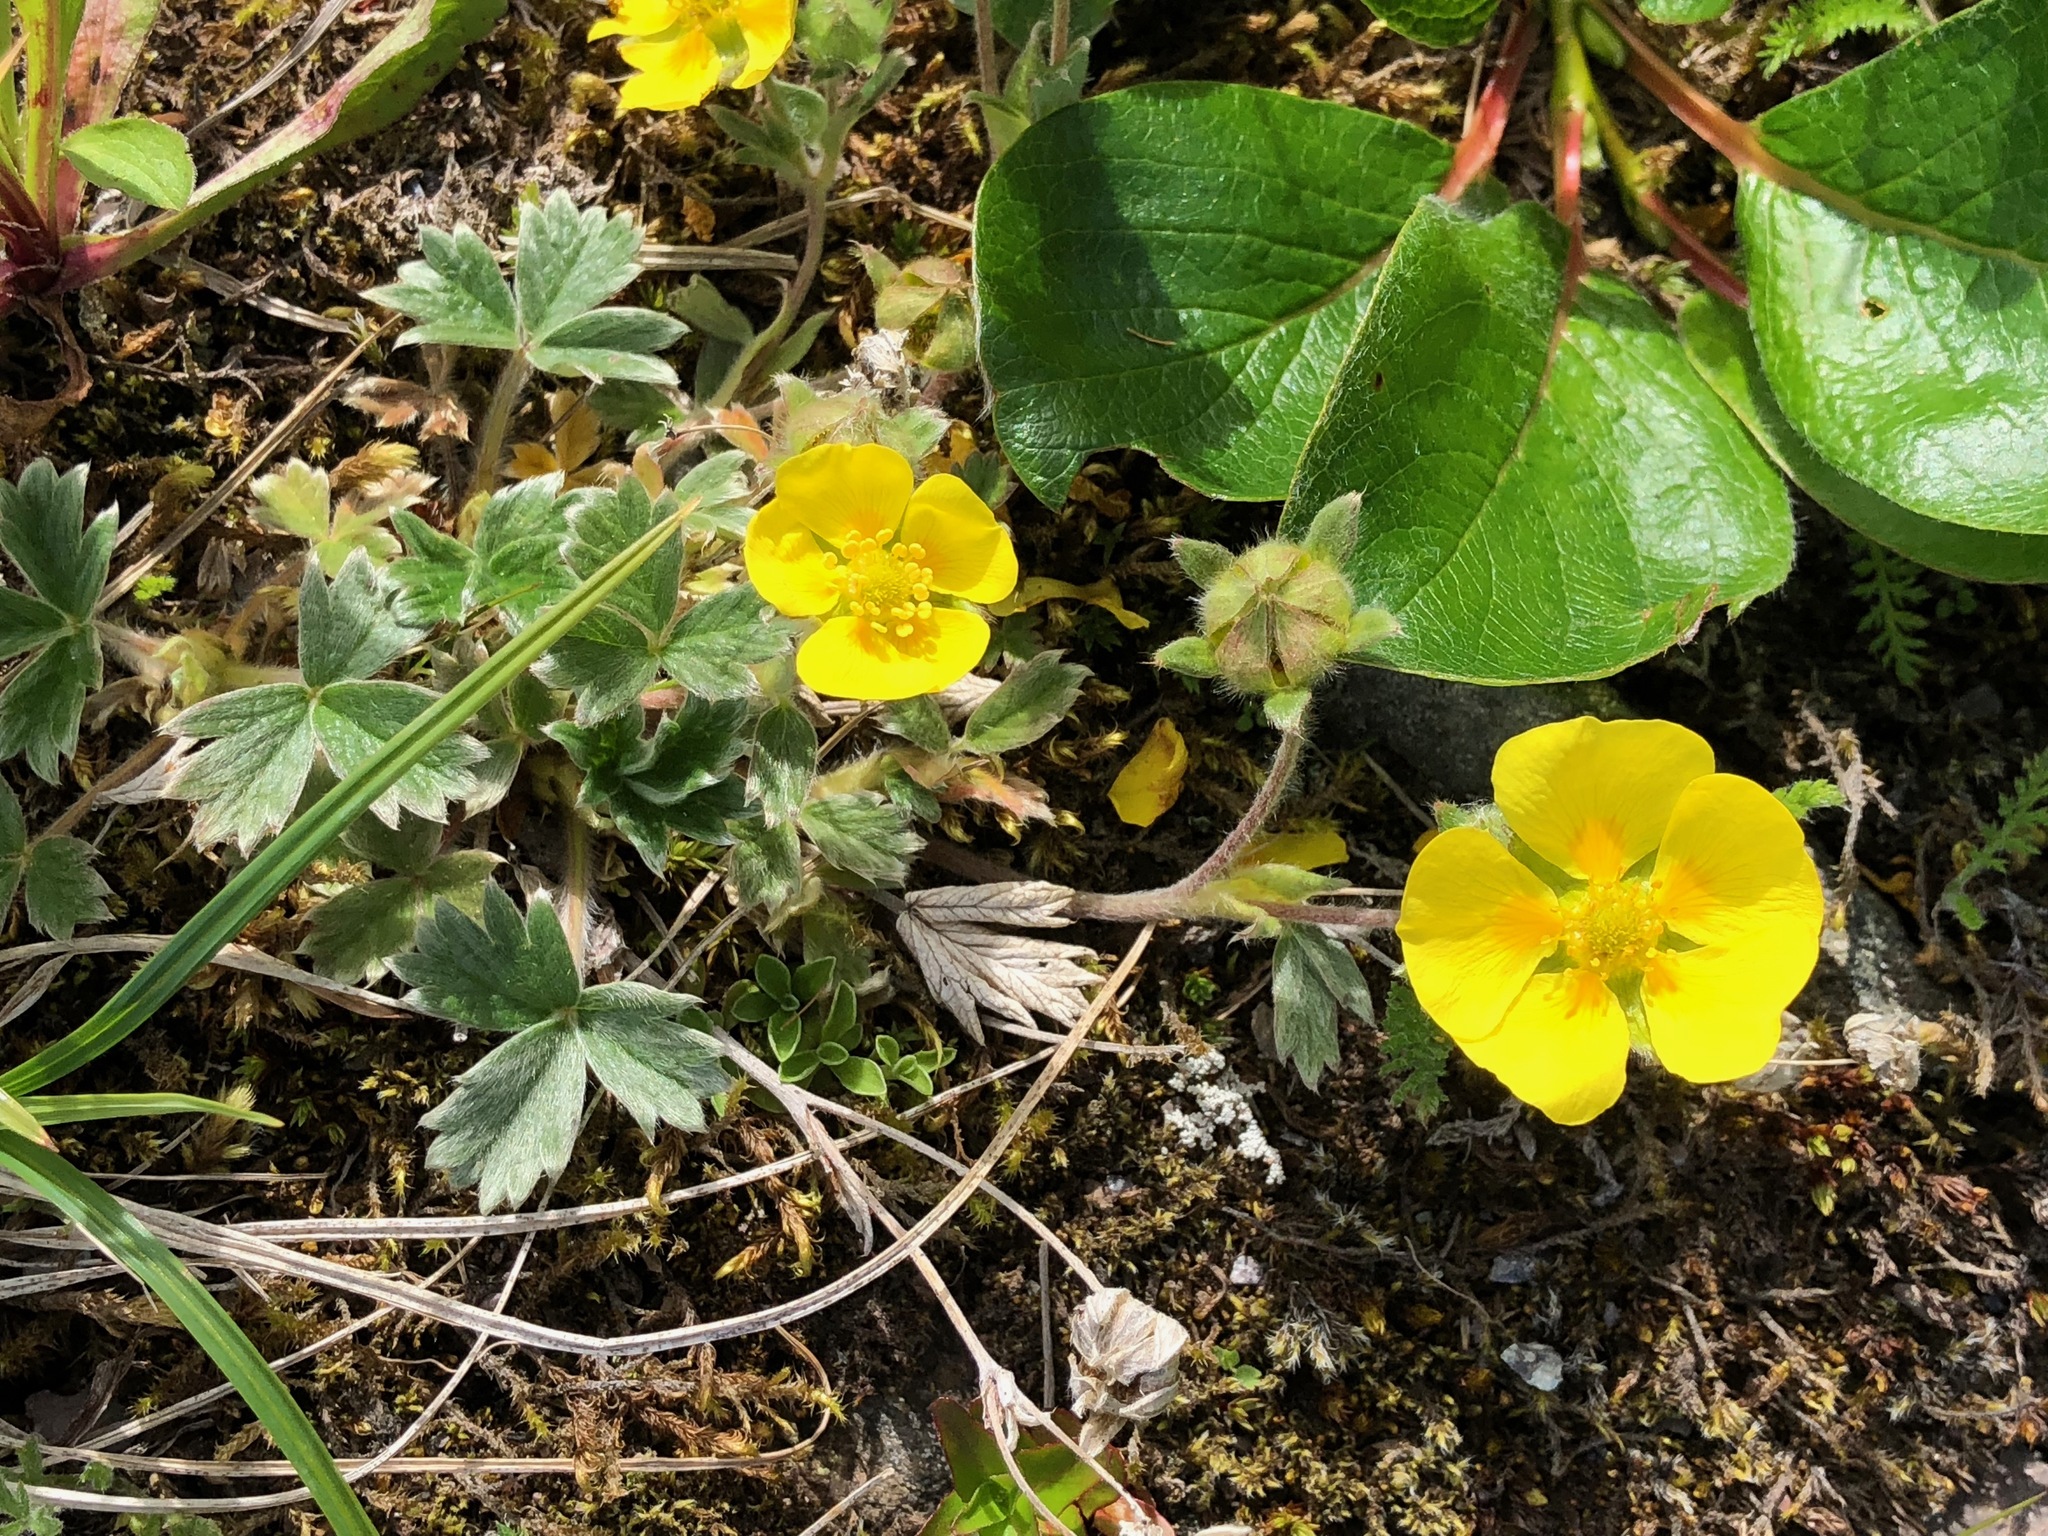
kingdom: Plantae
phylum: Tracheophyta
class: Magnoliopsida
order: Rosales
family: Rosaceae
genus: Potentilla
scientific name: Potentilla villosula
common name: Finely villous cinquefoil
